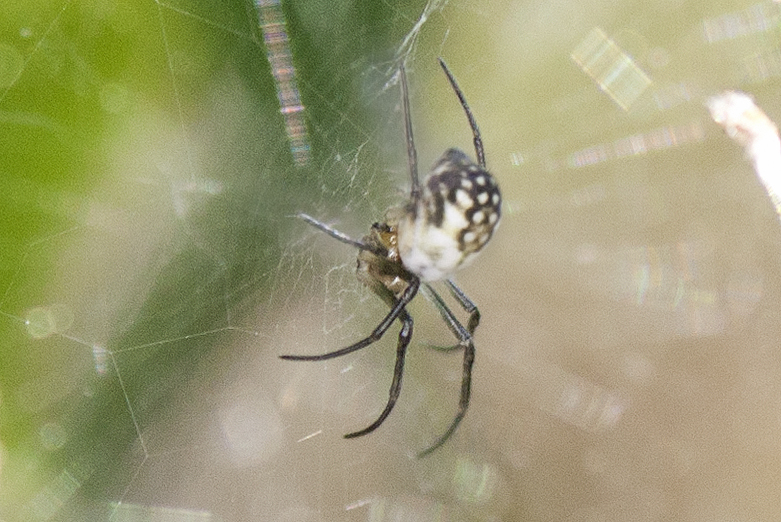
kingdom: Animalia
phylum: Arthropoda
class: Arachnida
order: Araneae
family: Araneidae
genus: Trichonephila
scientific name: Trichonephila plumipes
